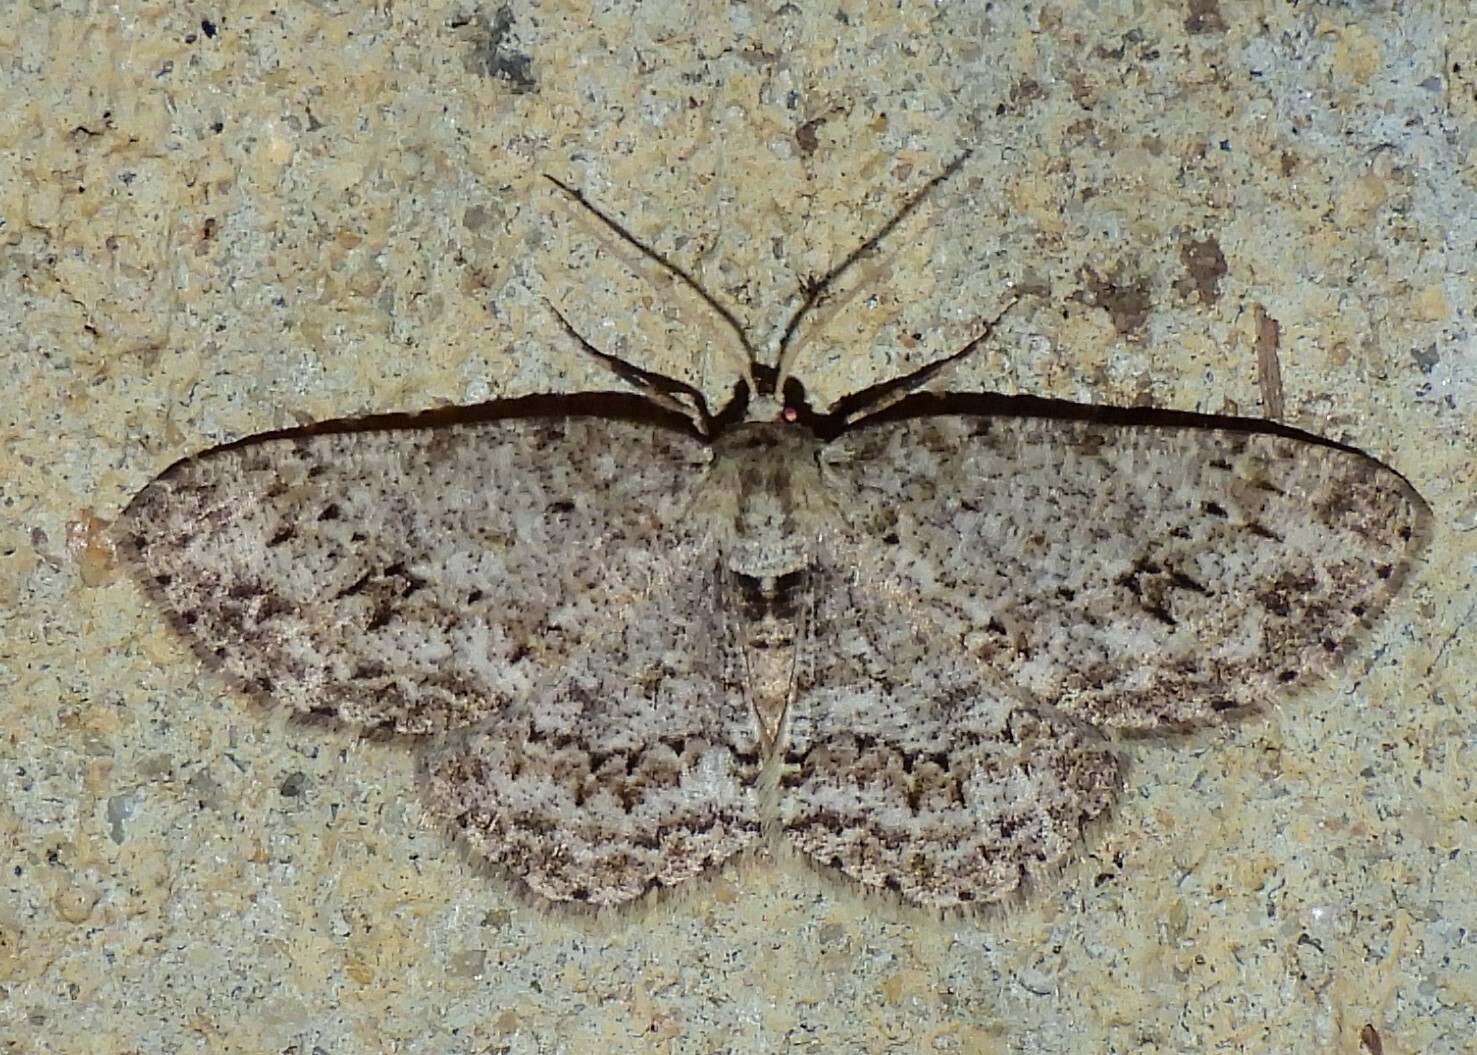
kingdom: Animalia
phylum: Arthropoda
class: Insecta
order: Lepidoptera
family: Geometridae
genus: Ectropis
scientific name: Ectropis crepuscularia
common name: Engrailed
